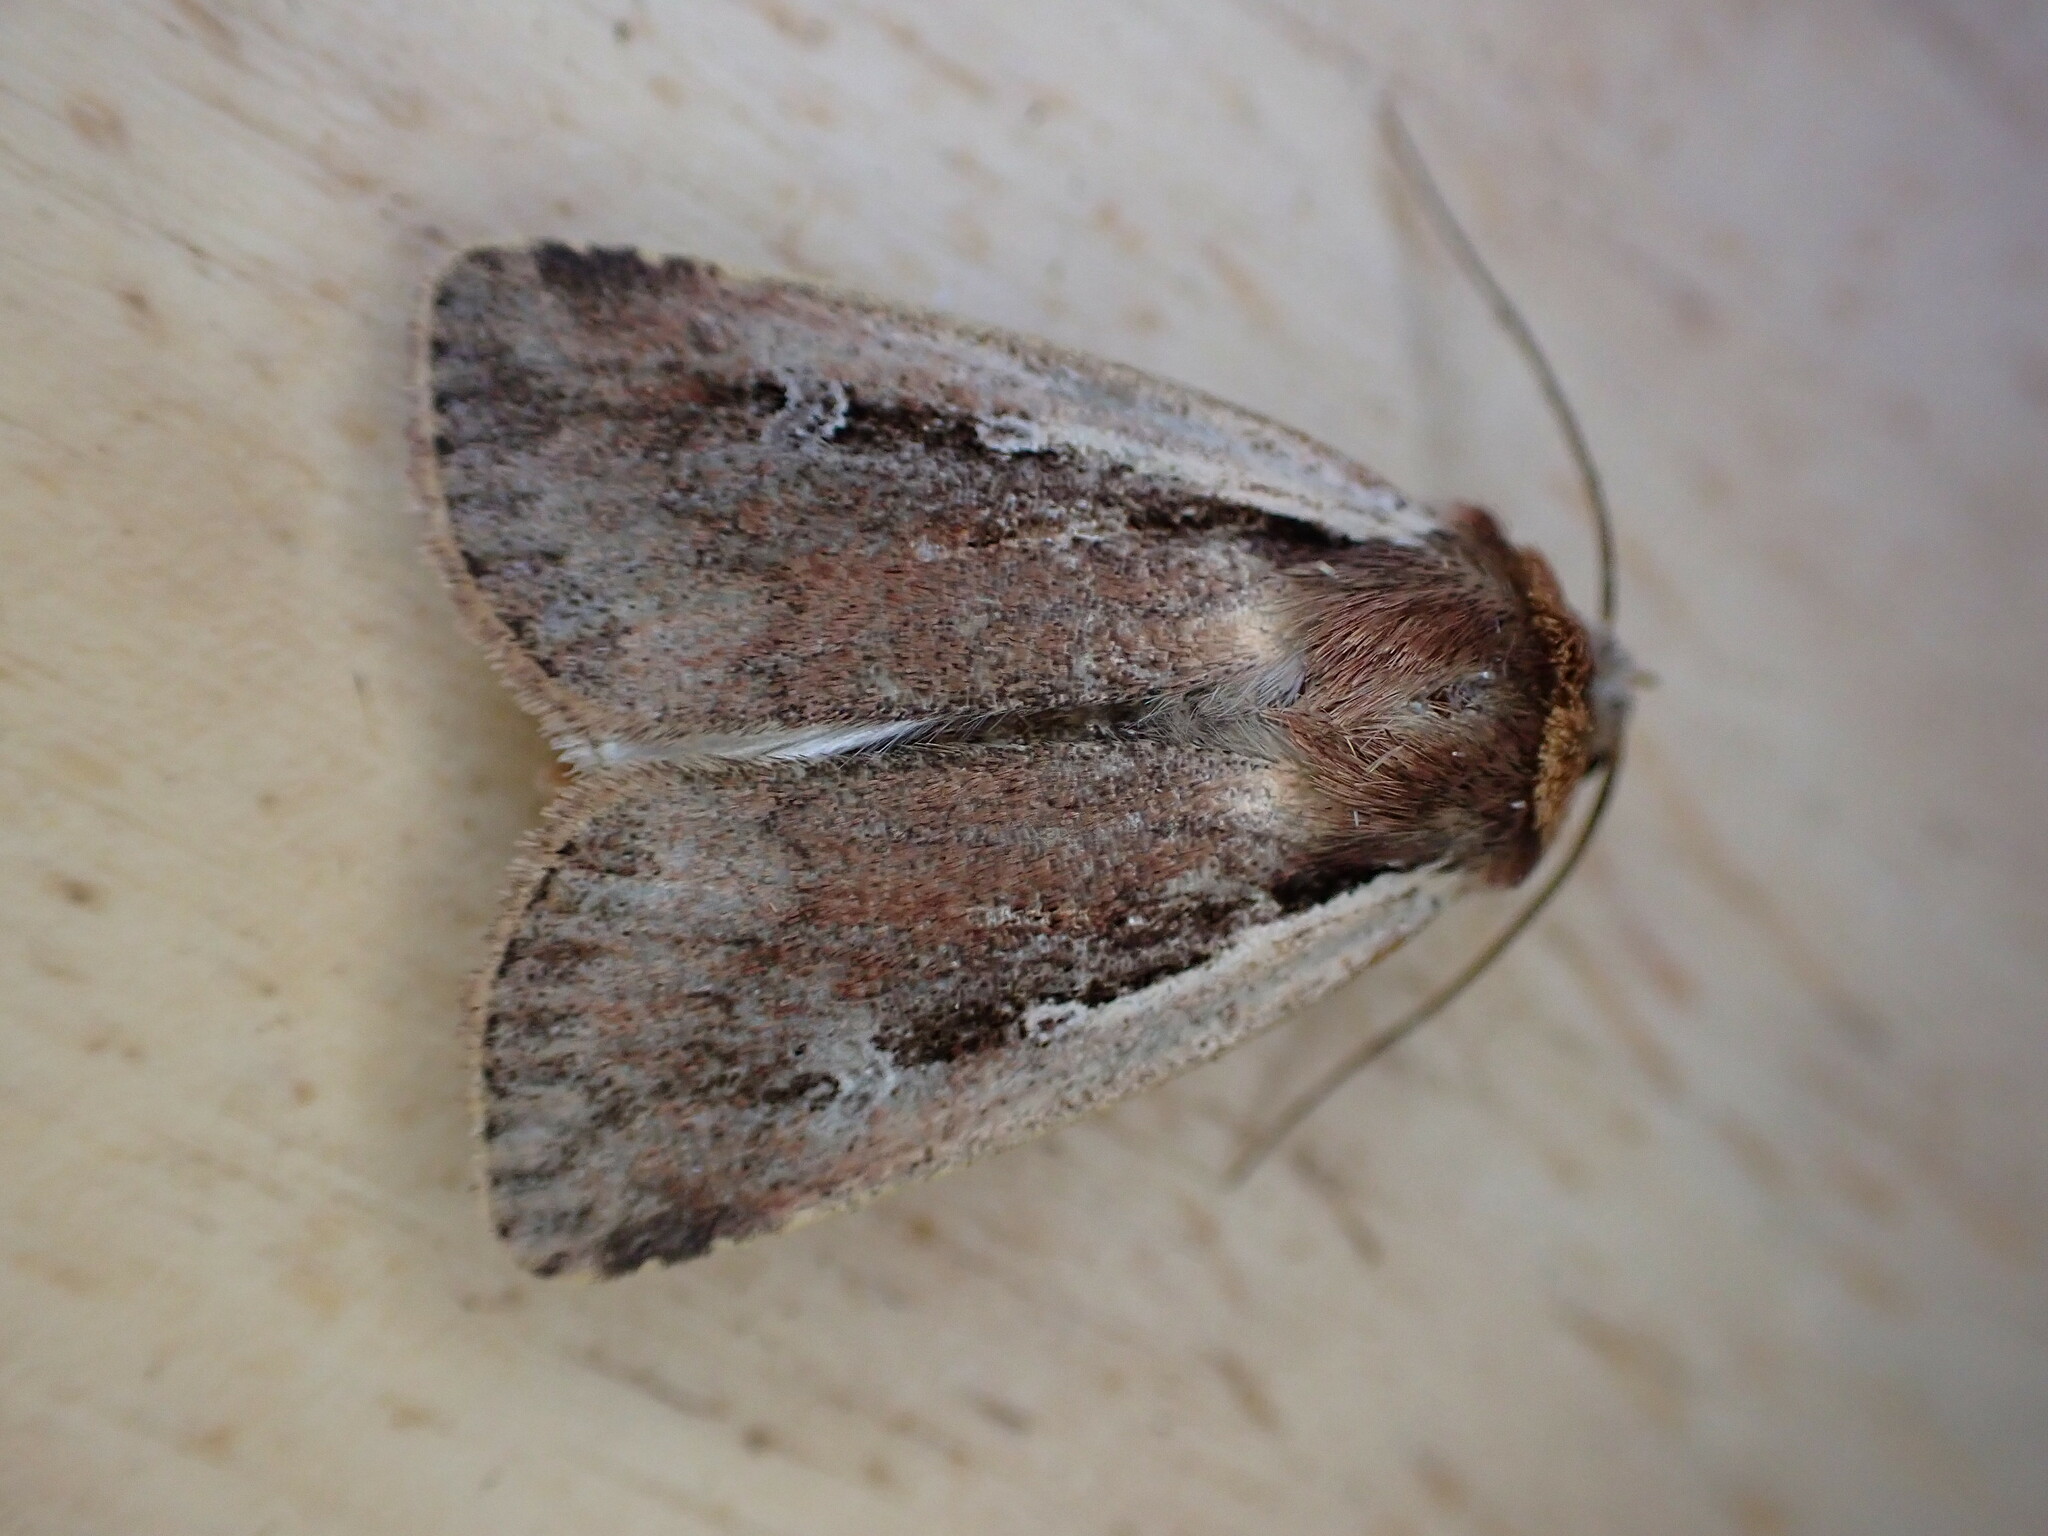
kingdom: Animalia
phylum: Arthropoda
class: Insecta
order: Lepidoptera
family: Noctuidae
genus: Ochropleura
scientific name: Ochropleura plecta
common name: Flame shoulder
